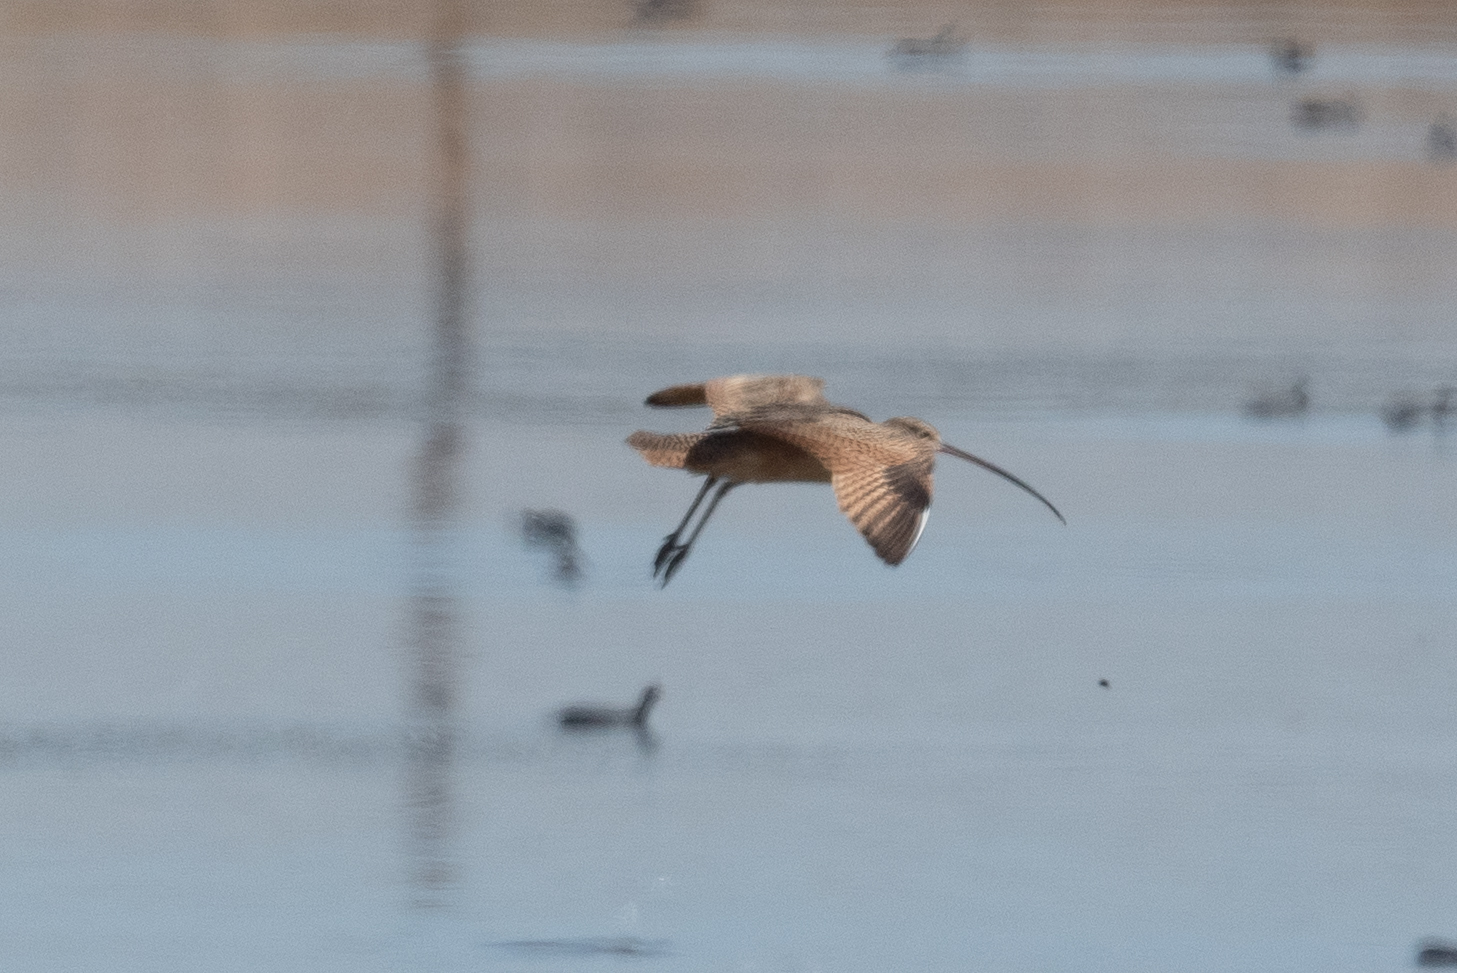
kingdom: Animalia
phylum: Chordata
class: Aves
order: Charadriiformes
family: Scolopacidae
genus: Numenius
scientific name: Numenius americanus
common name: Long-billed curlew
